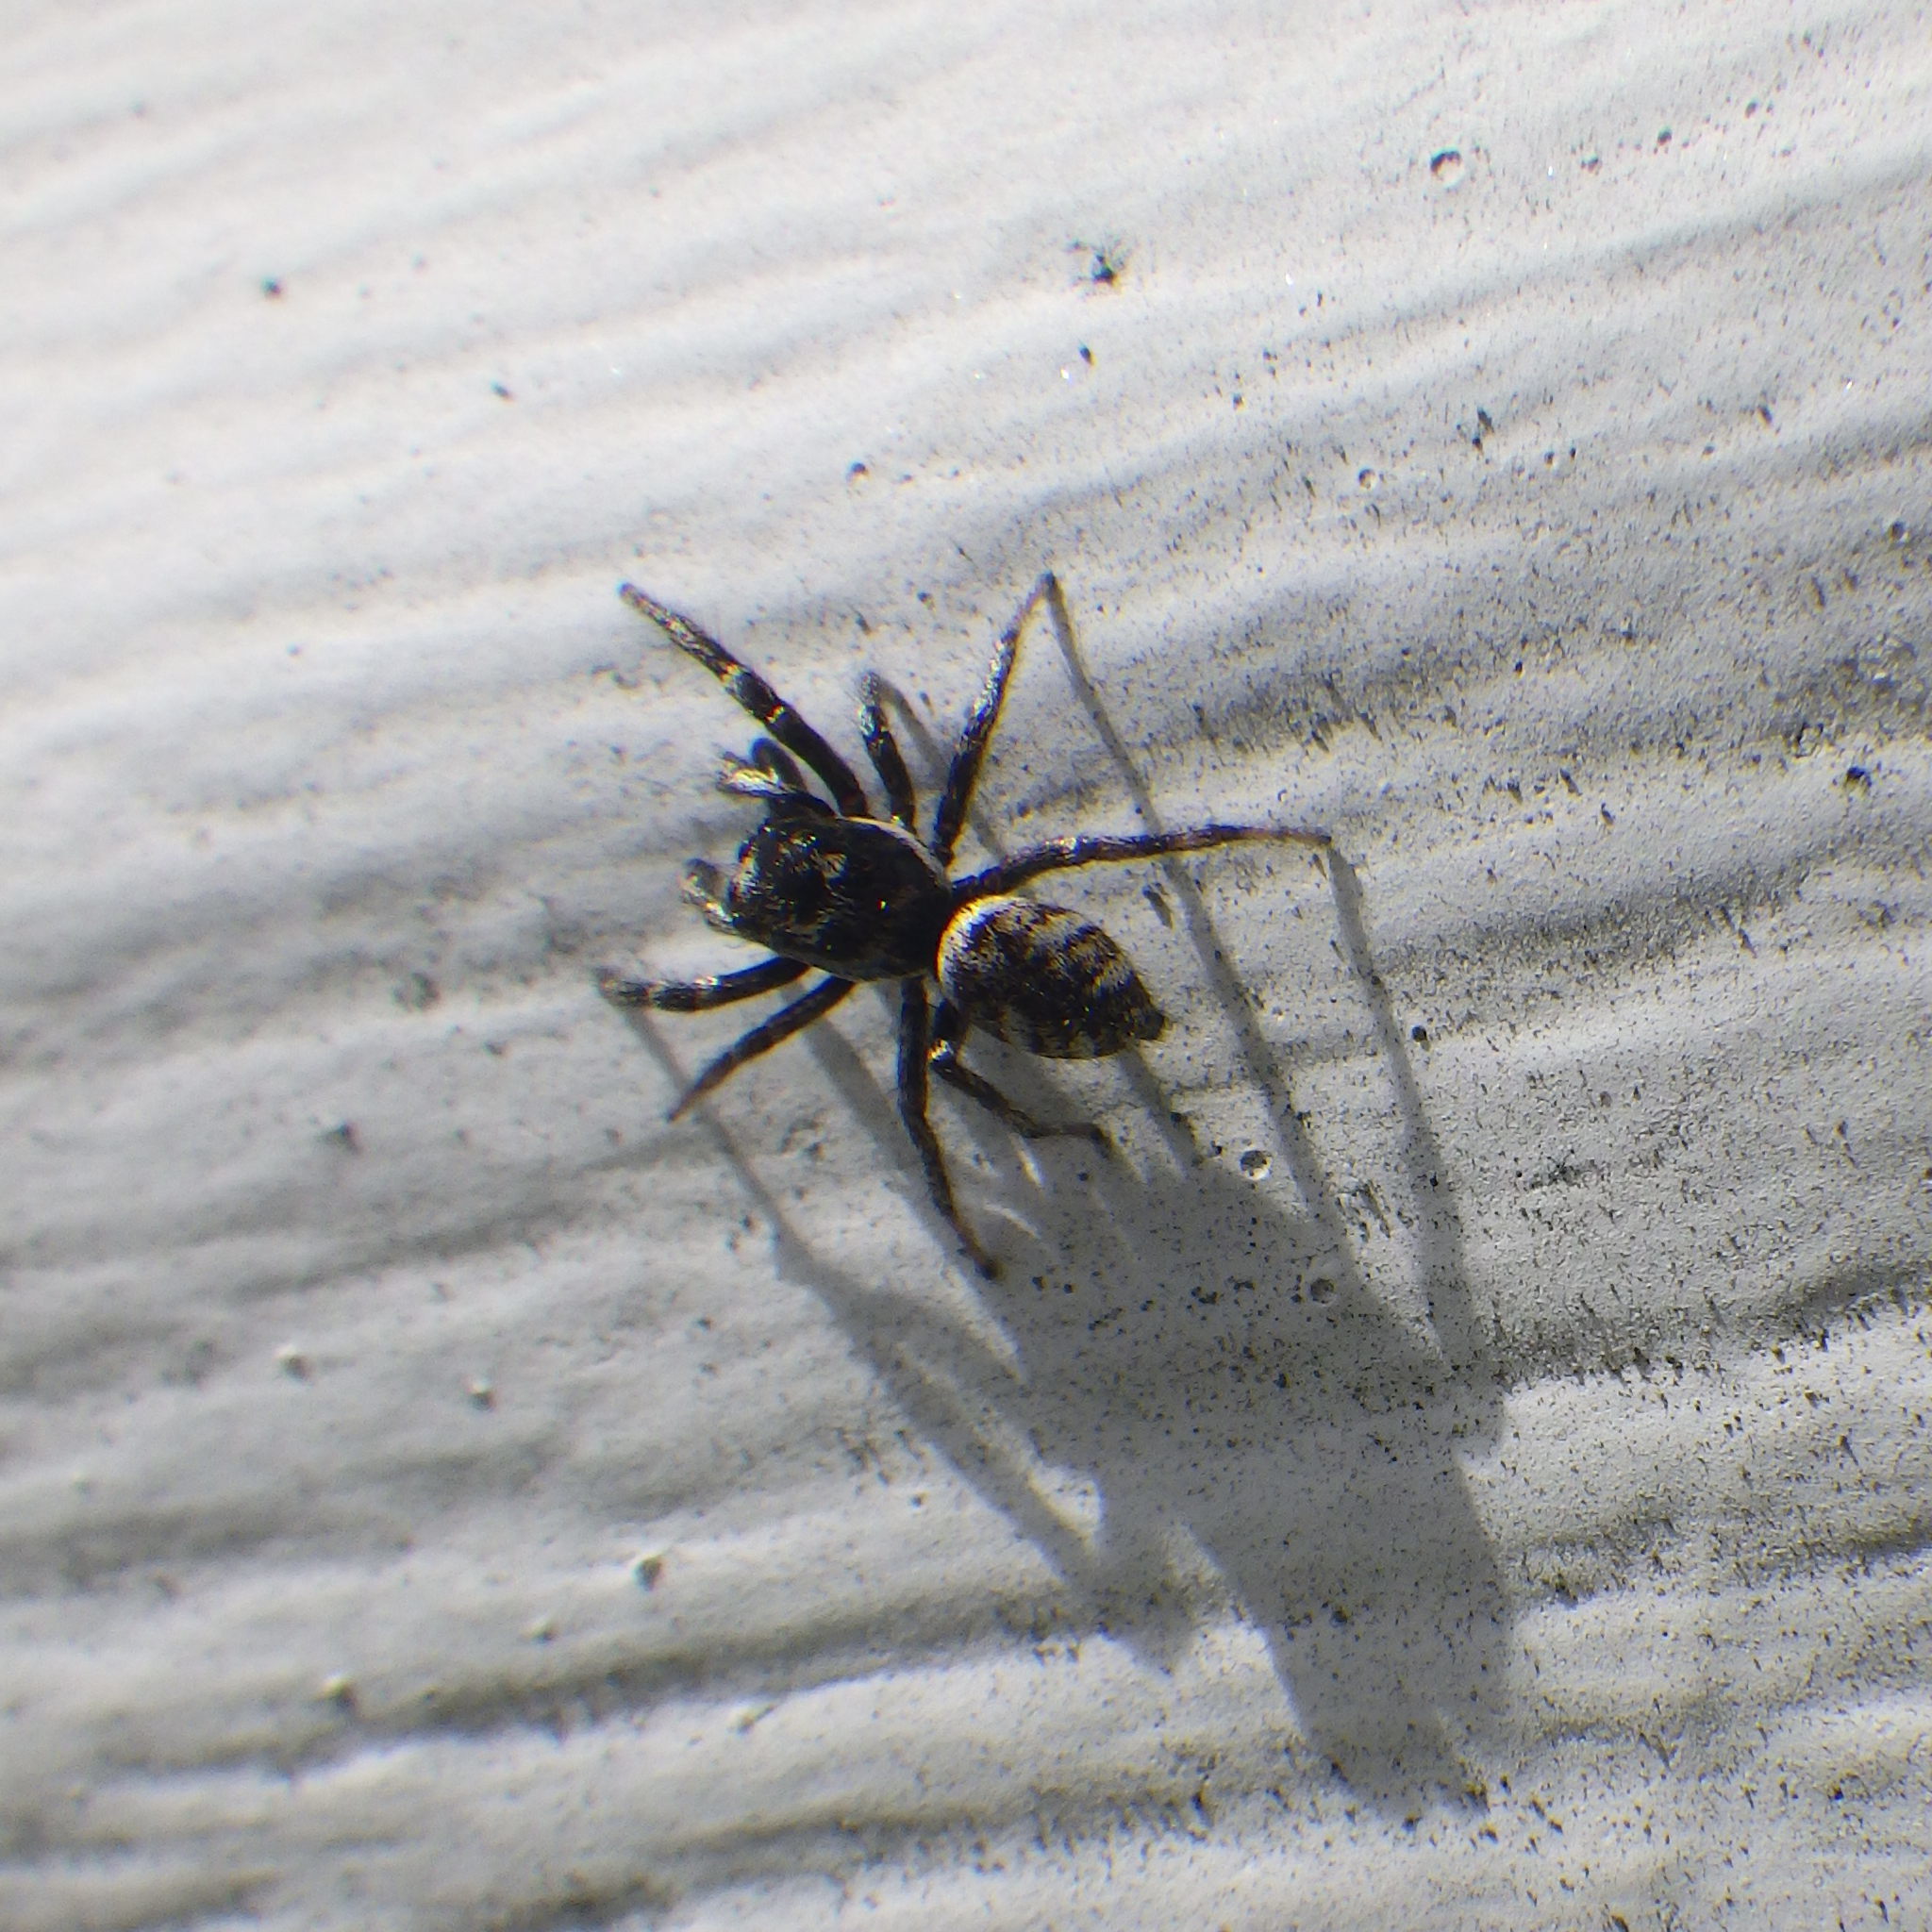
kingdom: Animalia
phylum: Arthropoda
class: Arachnida
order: Araneae
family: Salticidae
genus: Salticus
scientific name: Salticus scenicus
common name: Zebra jumper
